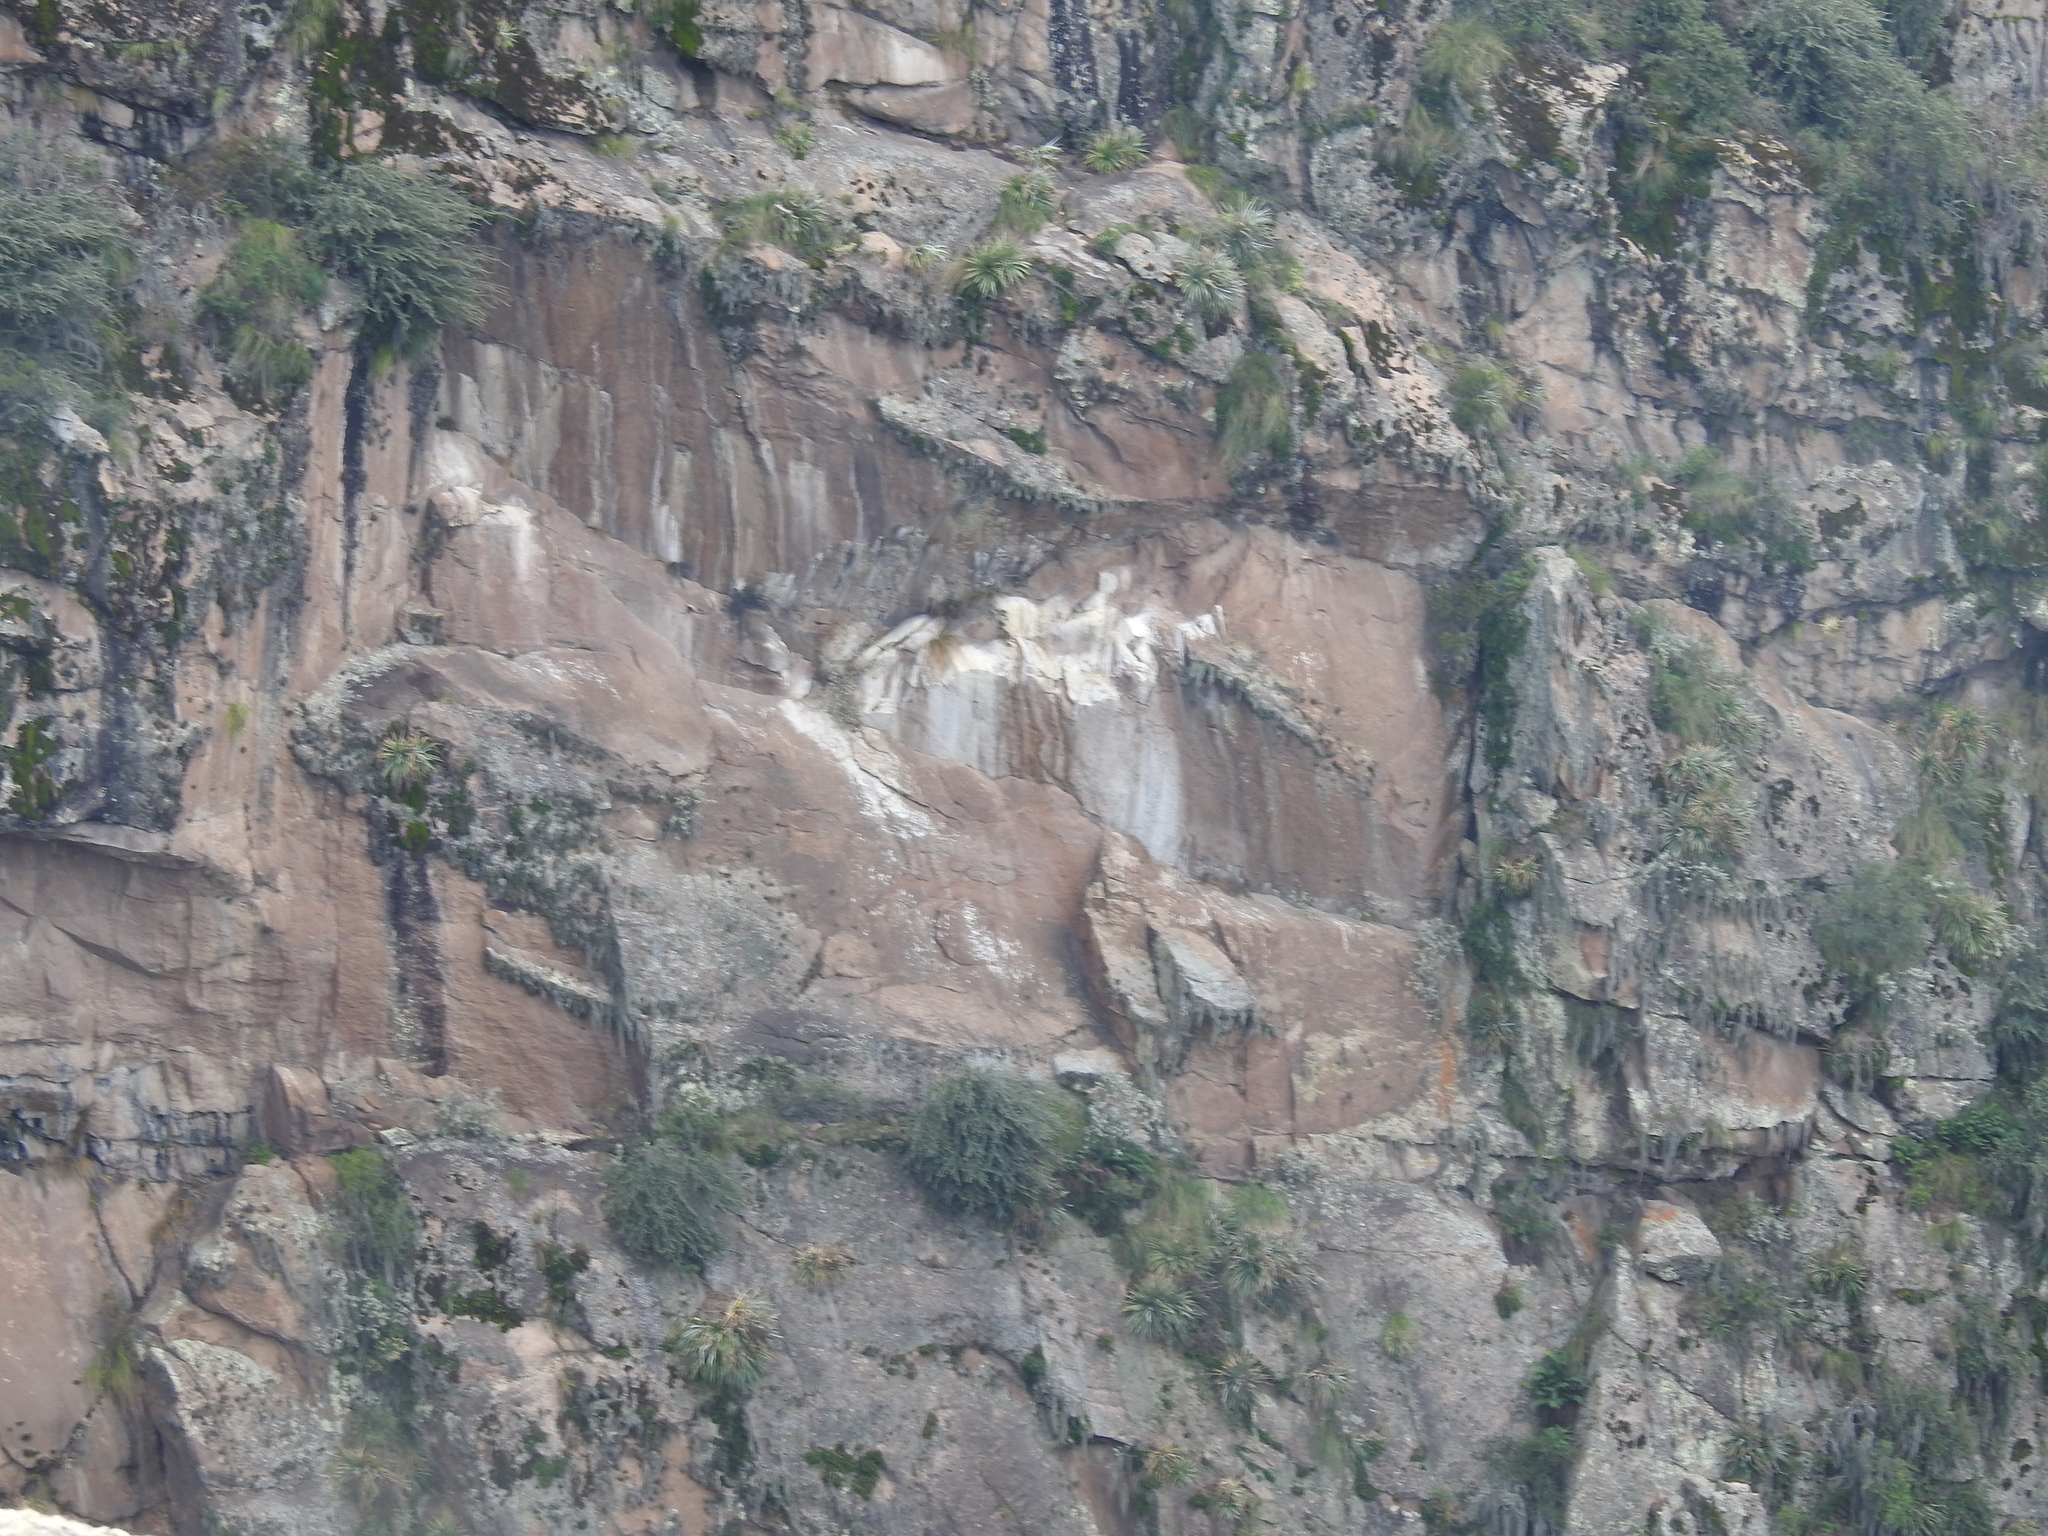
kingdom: Animalia
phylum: Chordata
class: Aves
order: Accipitriformes
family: Cathartidae
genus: Vultur
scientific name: Vultur gryphus
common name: Andean condor
